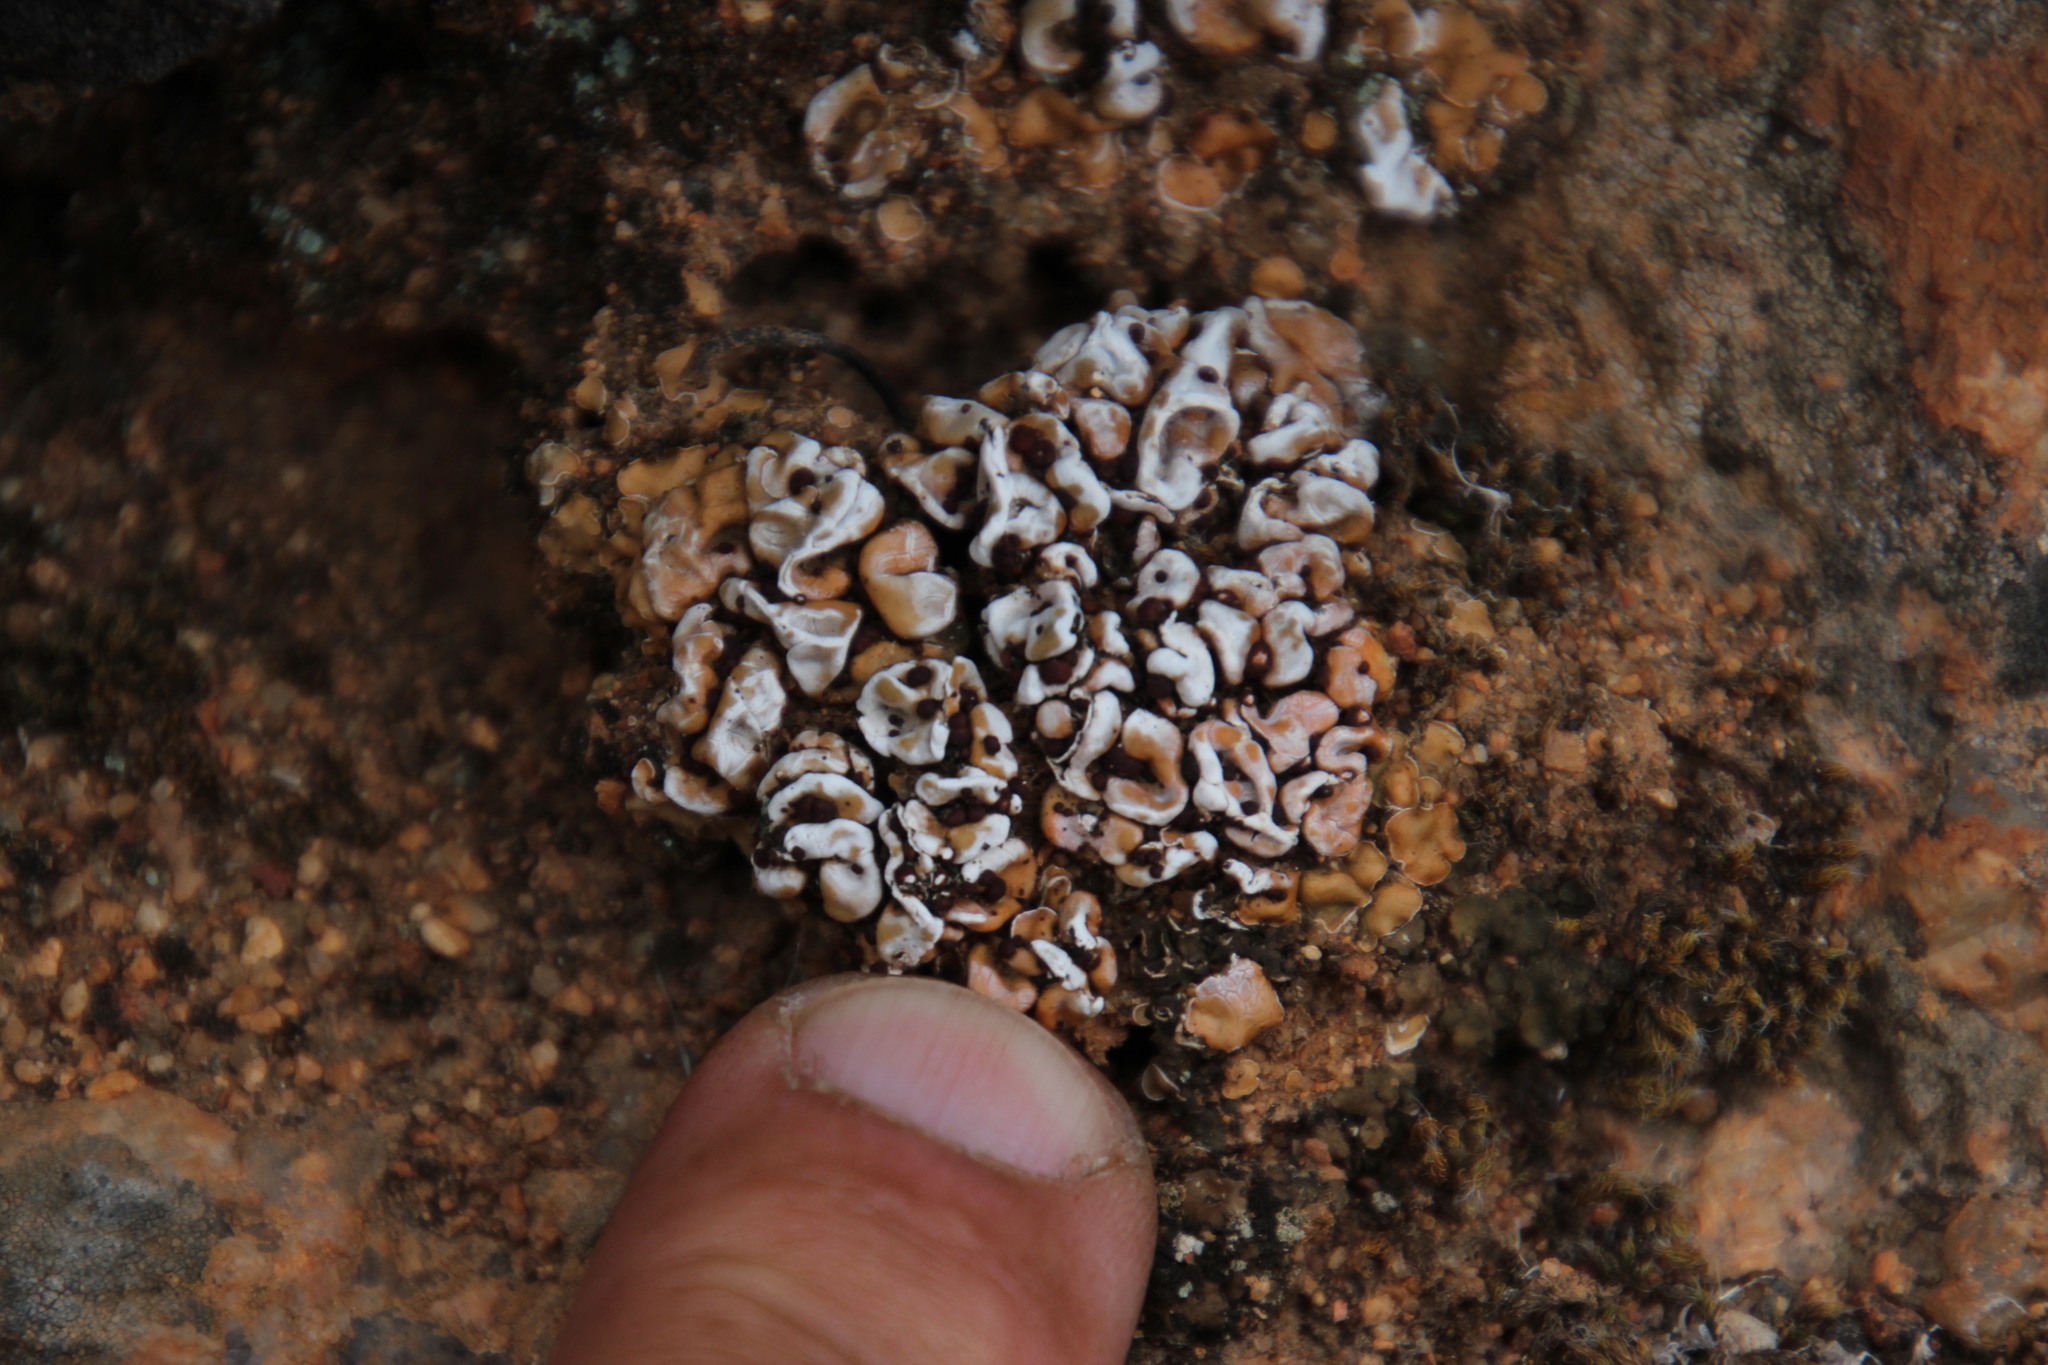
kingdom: Fungi
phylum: Ascomycota
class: Lecanoromycetes
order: Lecanorales
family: Psoraceae
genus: Psora
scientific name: Psora crenata
